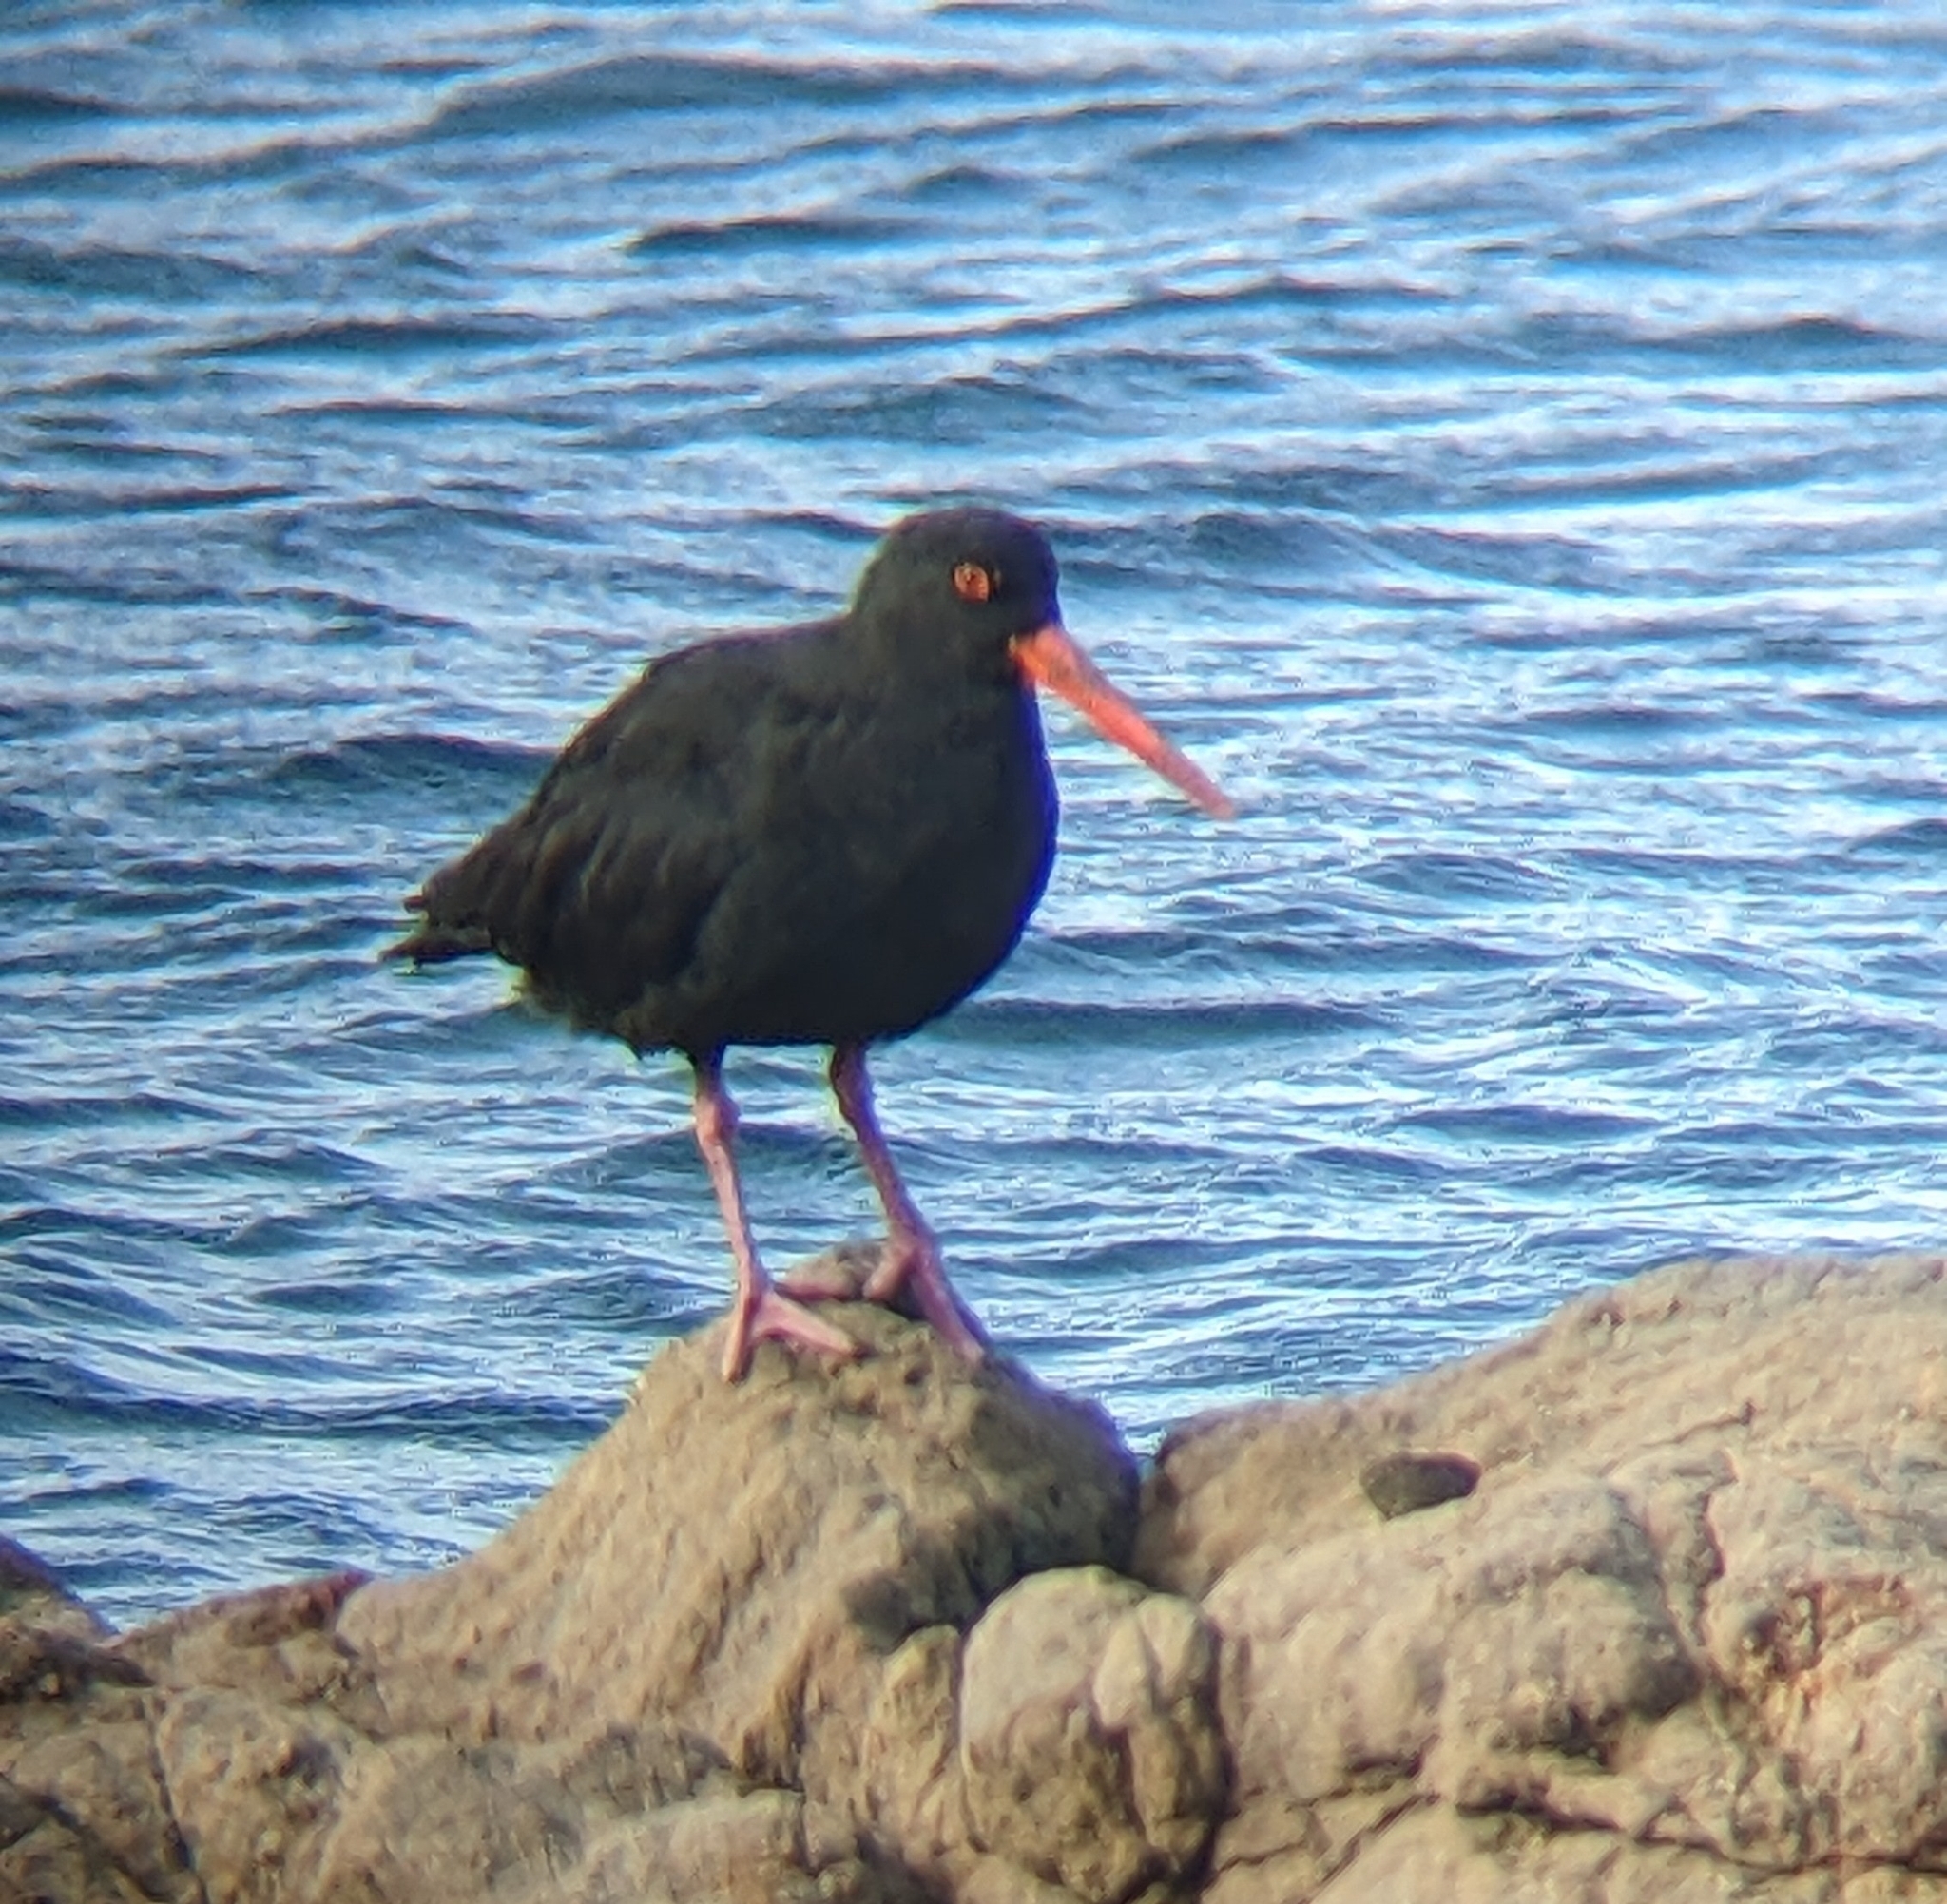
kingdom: Animalia
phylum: Chordata
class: Aves
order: Charadriiformes
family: Haematopodidae
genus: Haematopus
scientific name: Haematopus unicolor
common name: Variable oystercatcher
